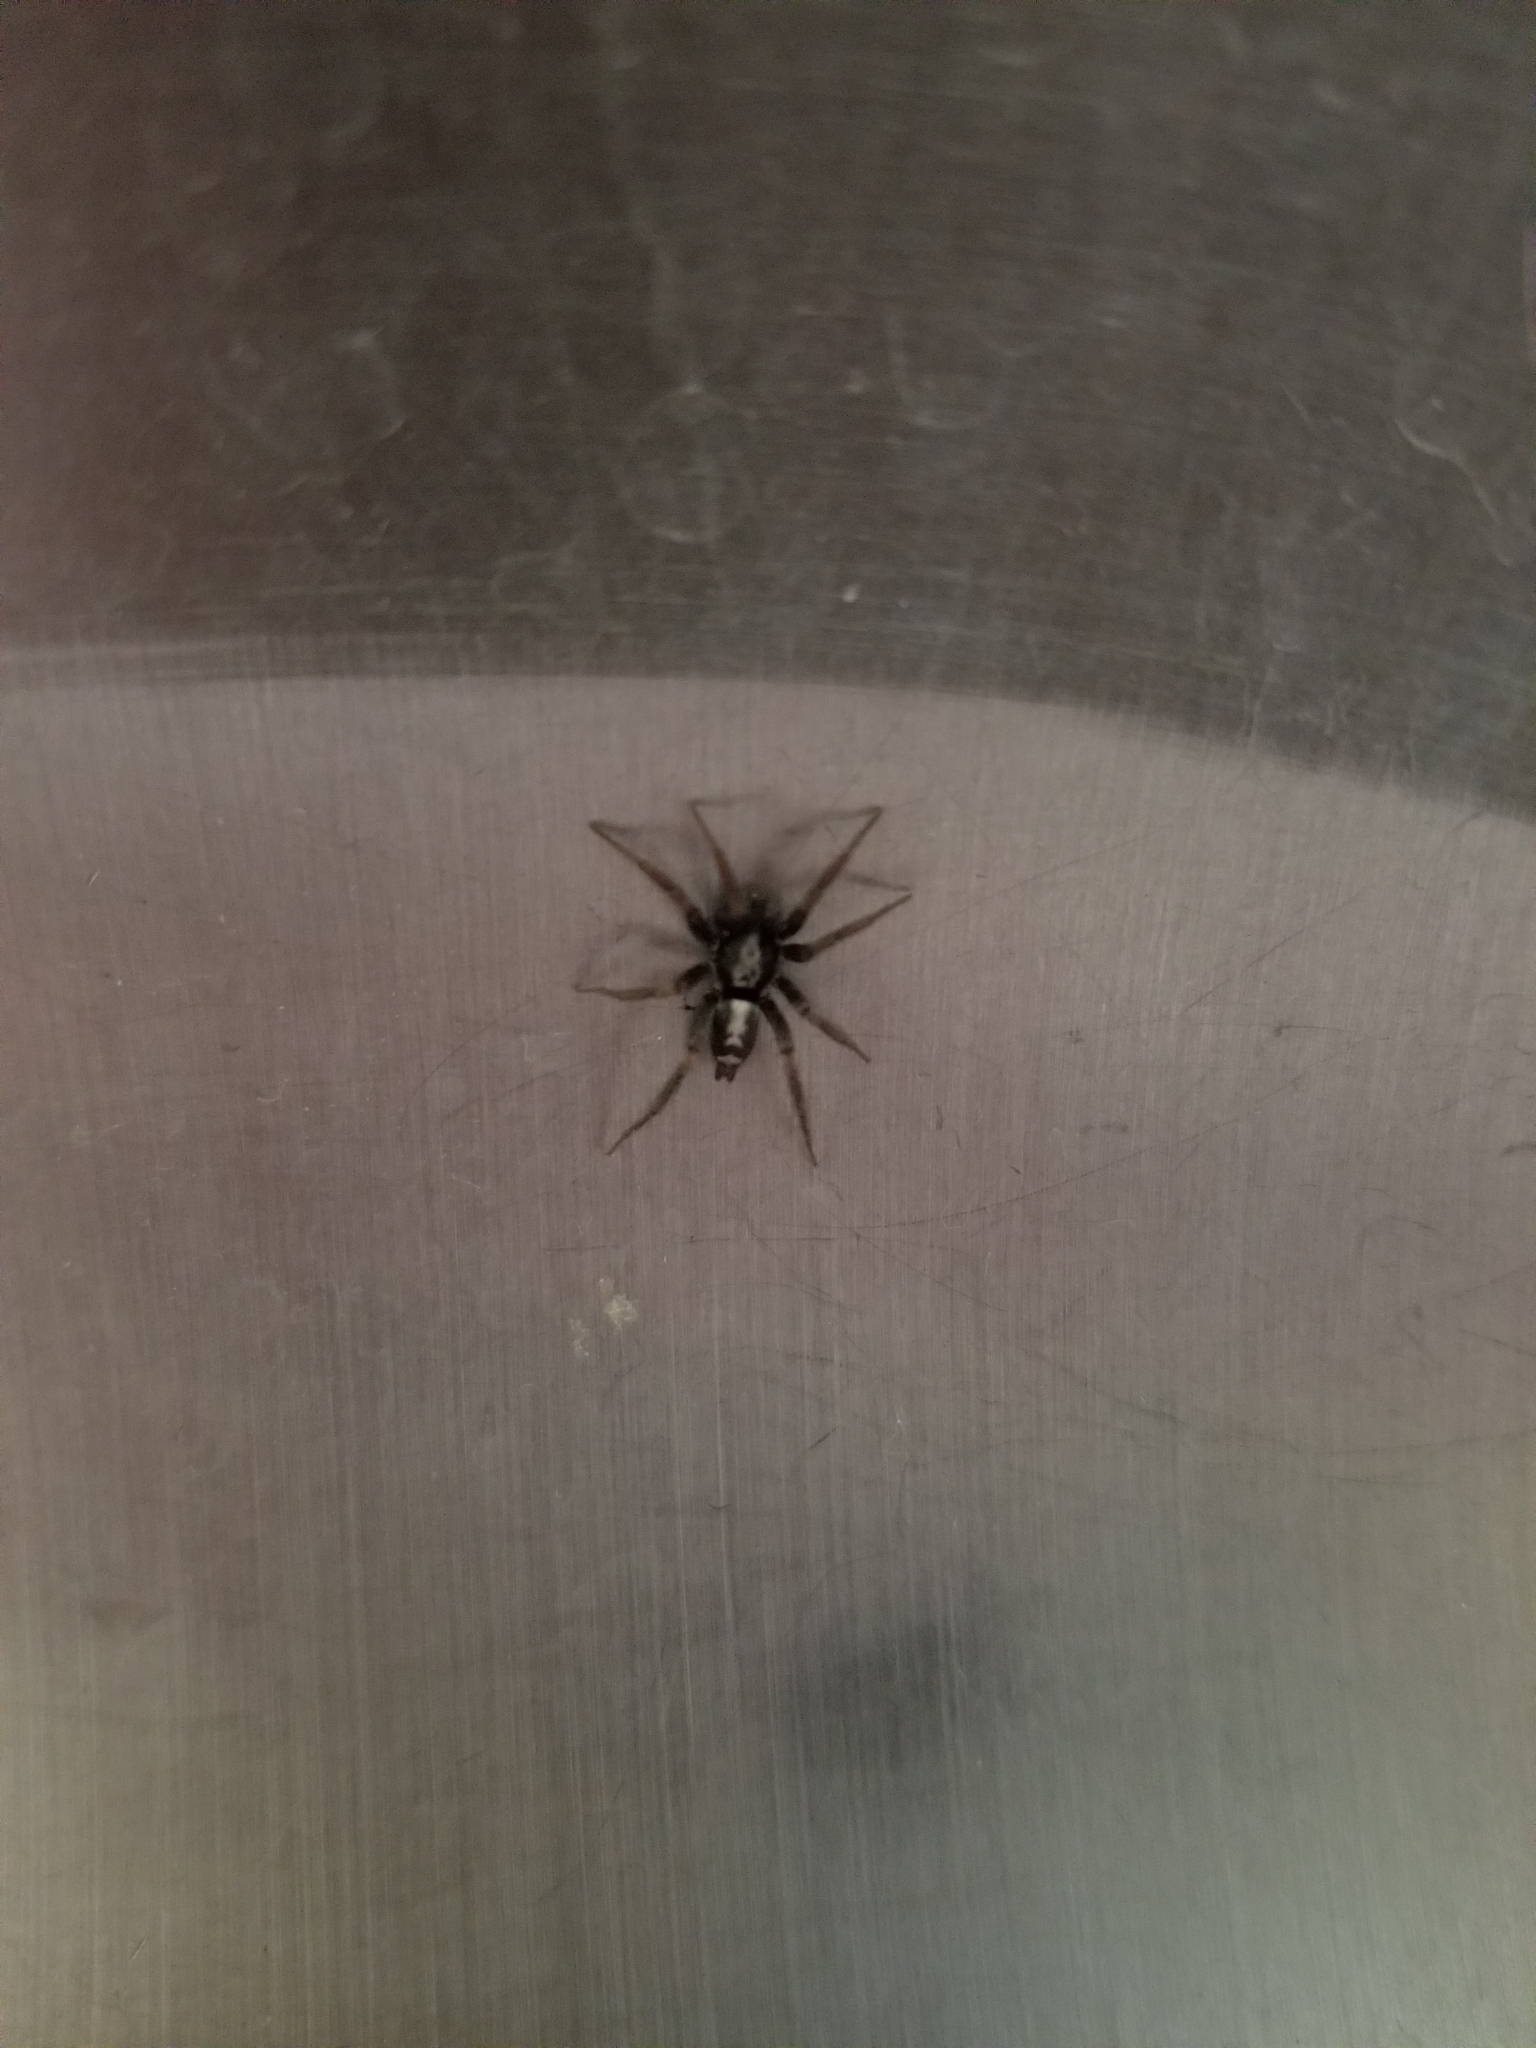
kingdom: Animalia
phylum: Arthropoda
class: Arachnida
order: Araneae
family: Gnaphosidae
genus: Herpyllus
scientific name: Herpyllus ecclesiasticus
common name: Eastern parson spider
